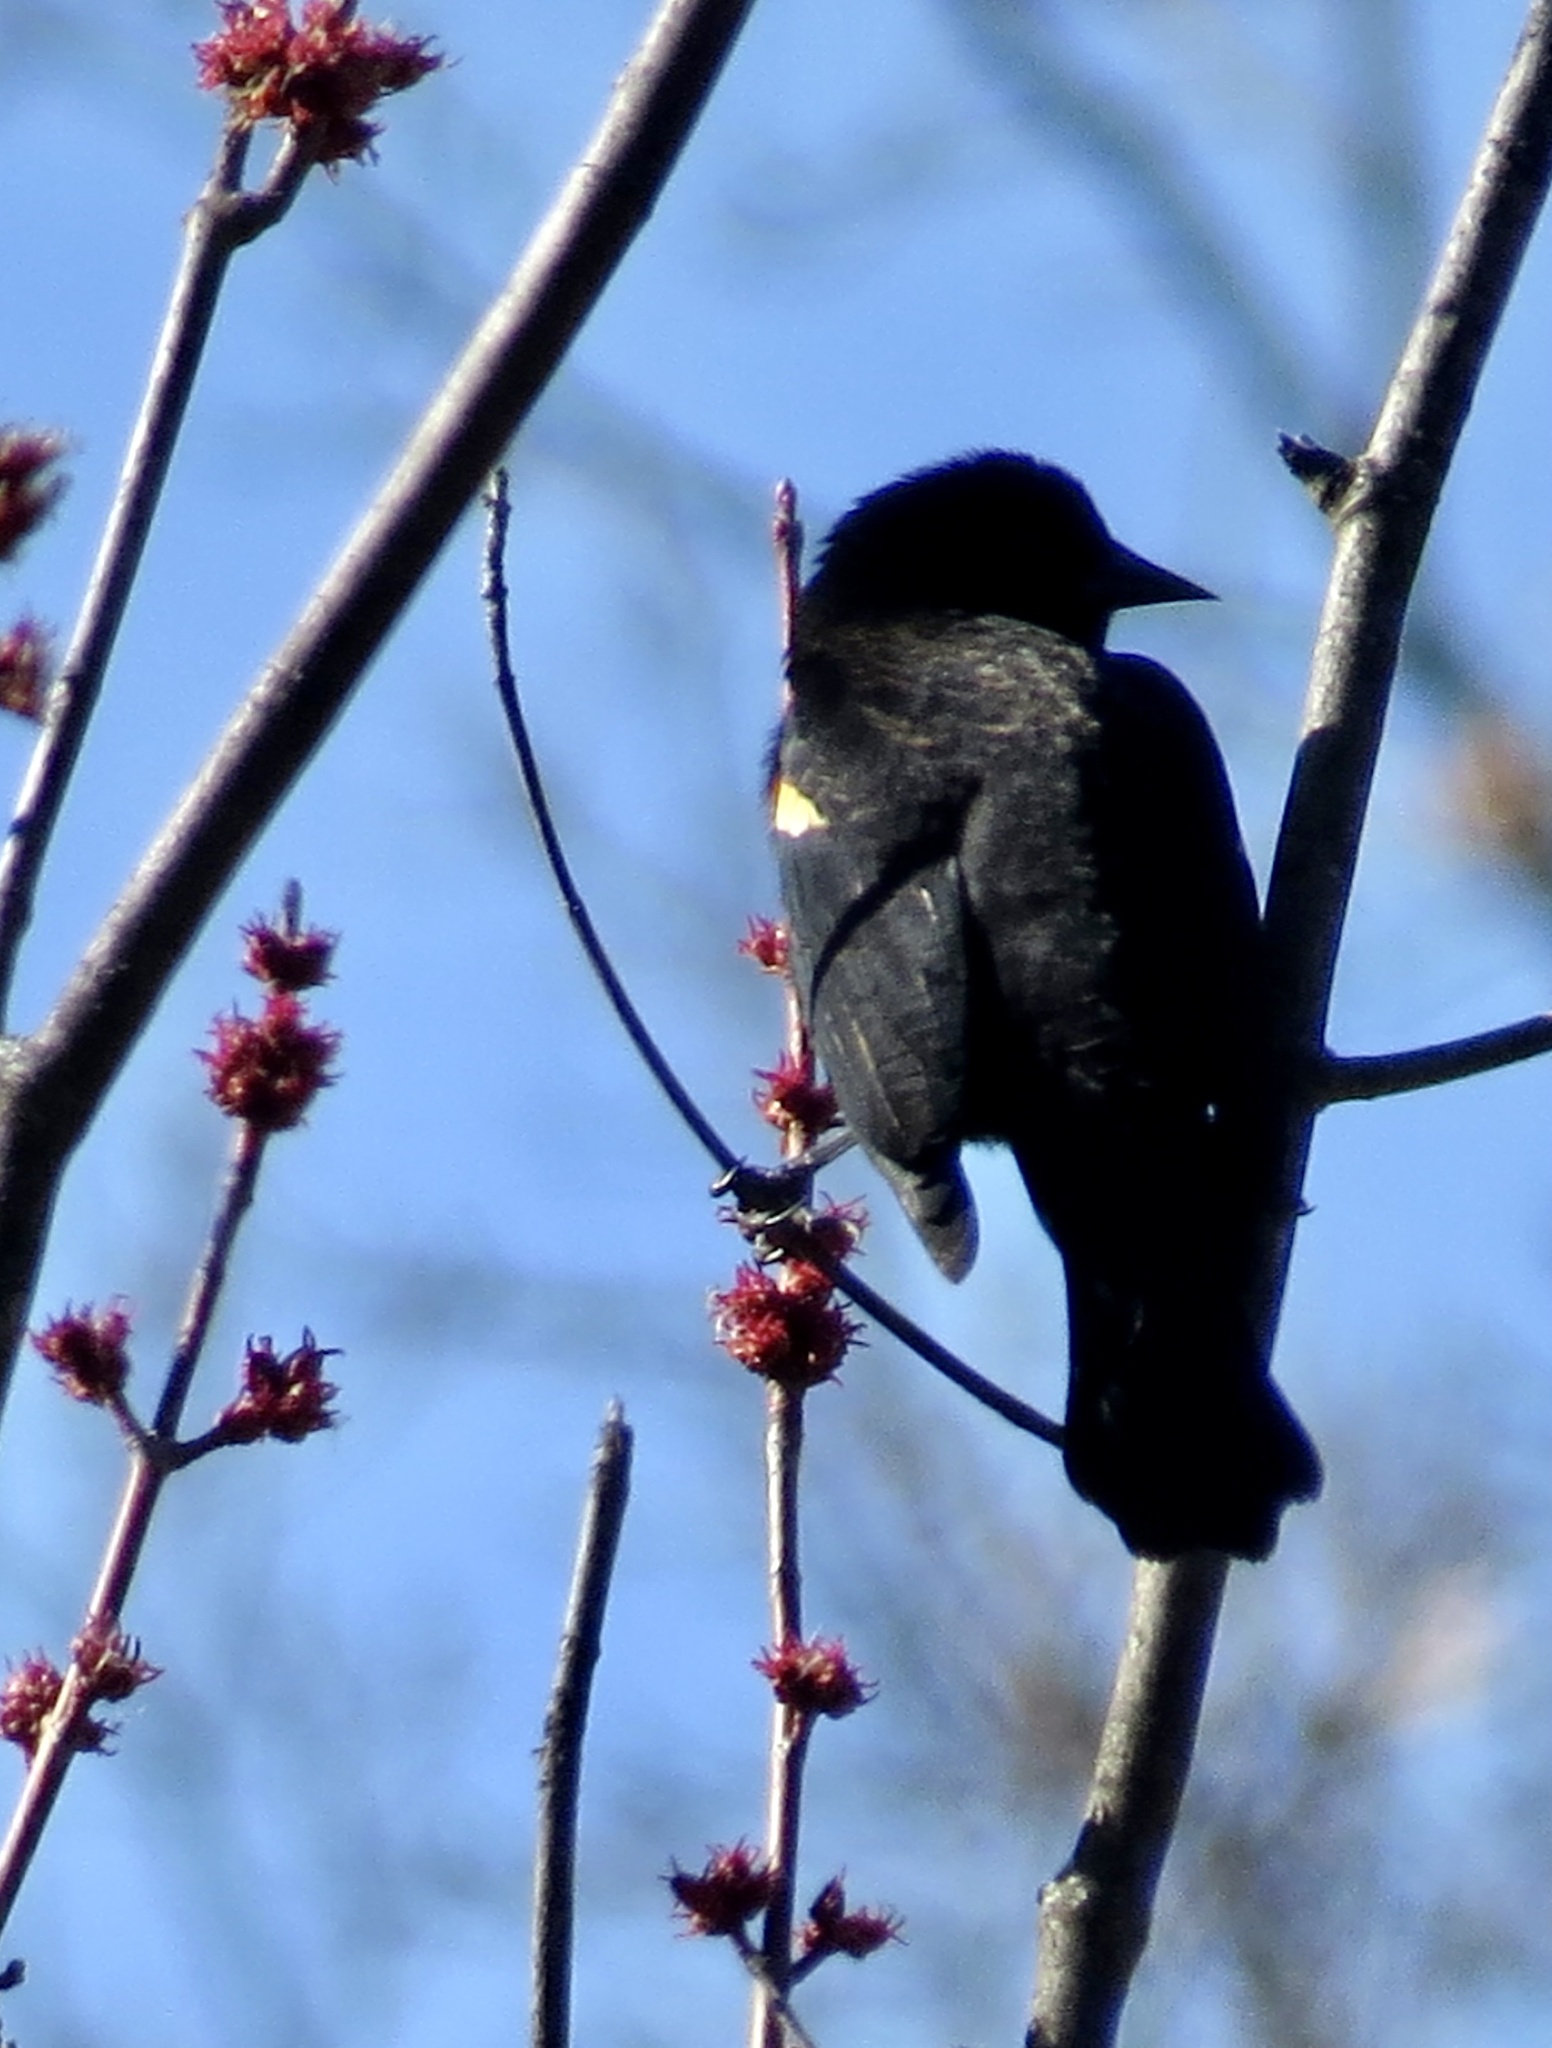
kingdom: Animalia
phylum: Chordata
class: Aves
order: Passeriformes
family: Icteridae
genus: Agelaius
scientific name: Agelaius phoeniceus
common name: Red-winged blackbird
